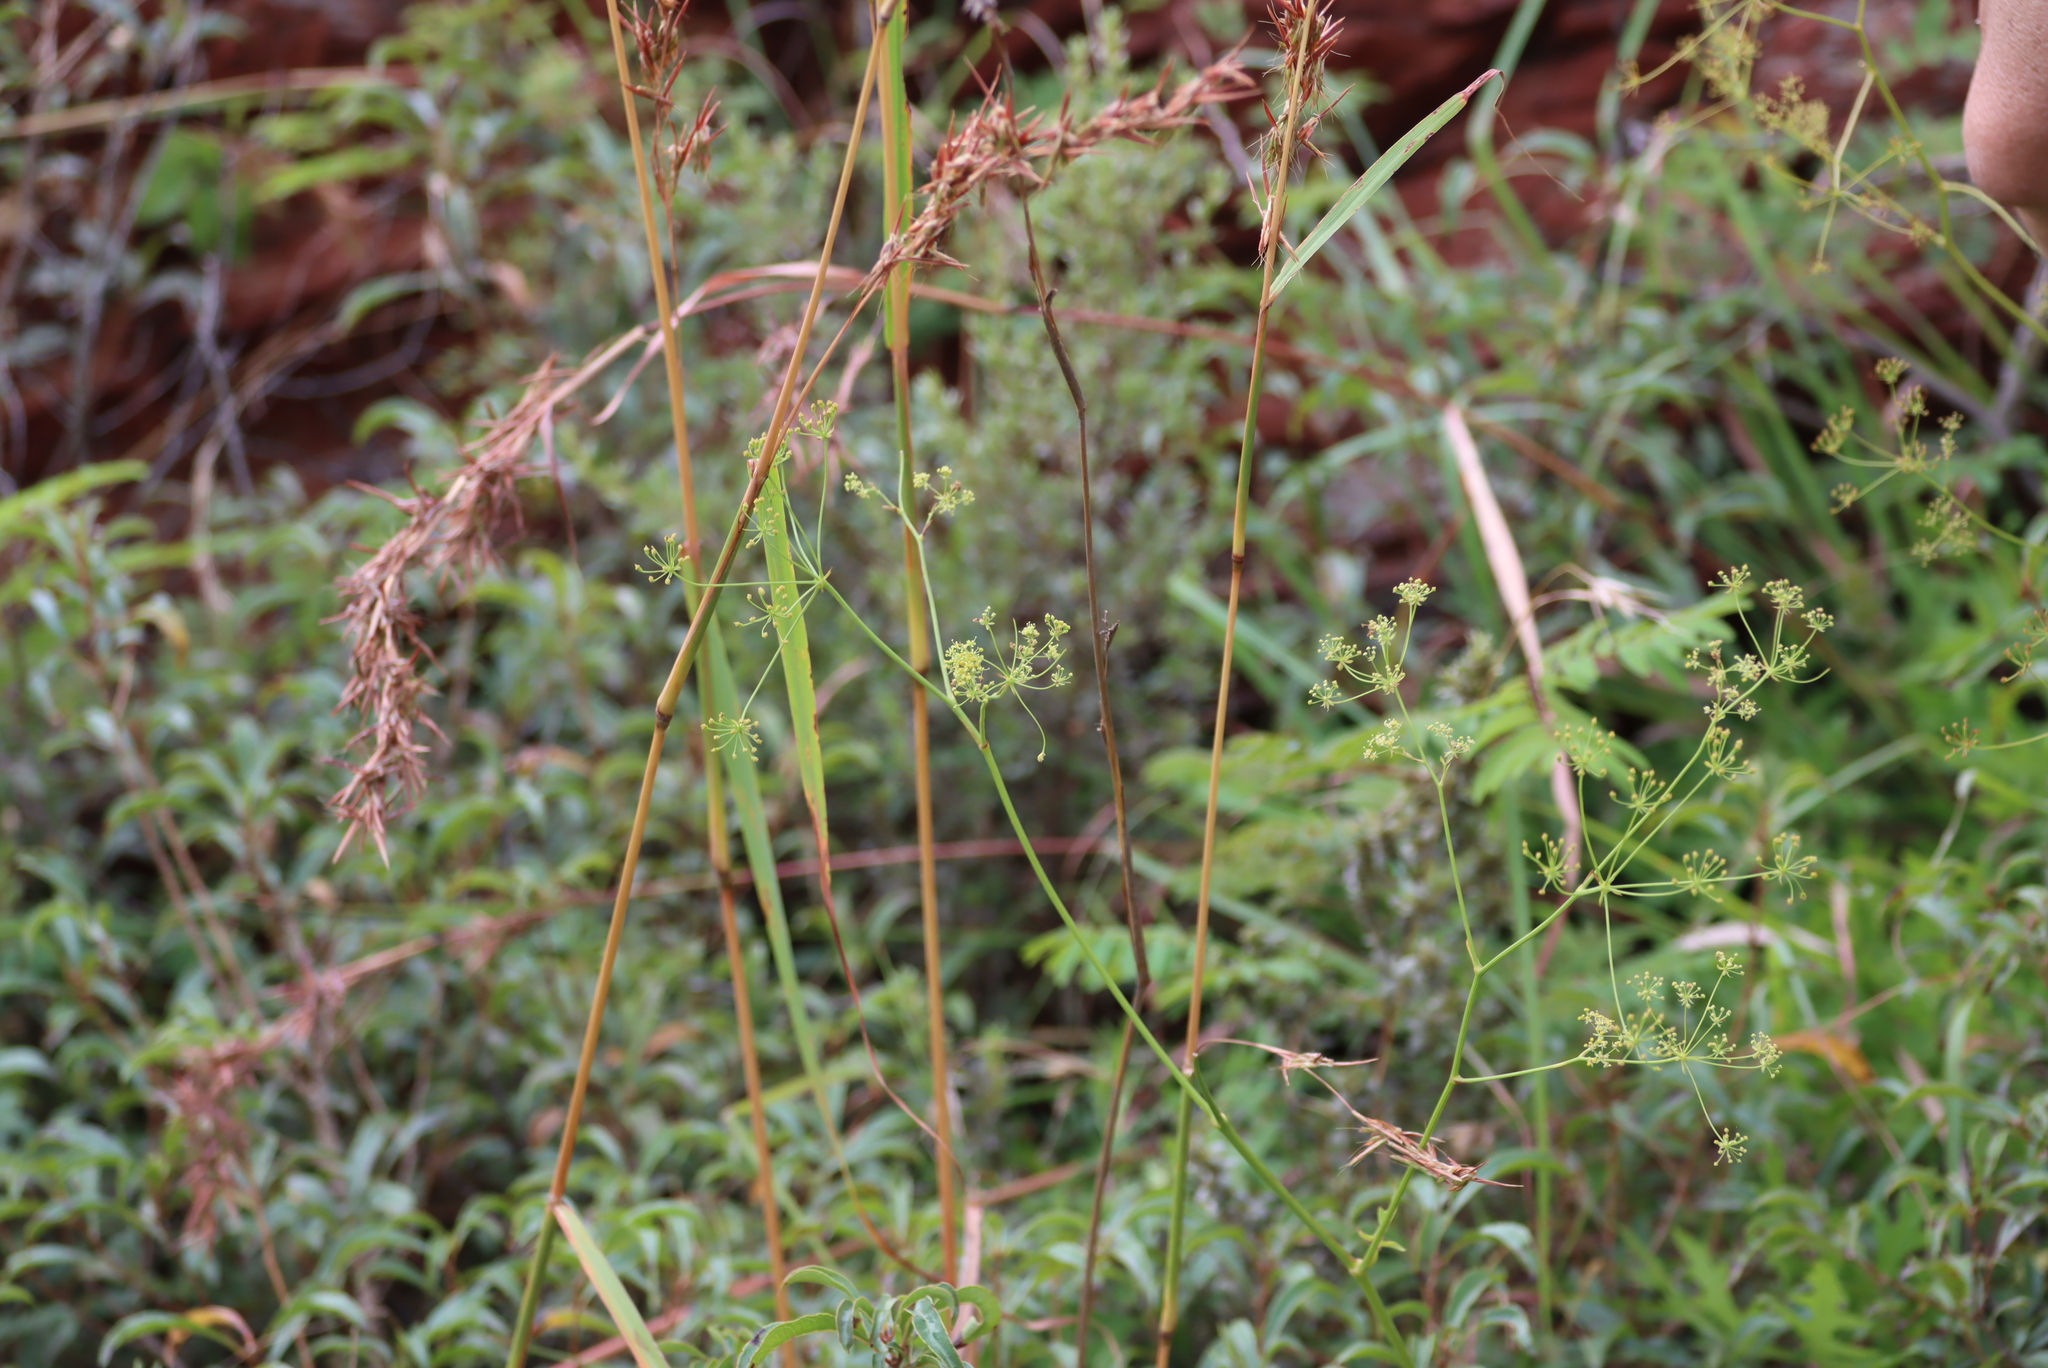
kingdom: Plantae
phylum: Tracheophyta
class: Magnoliopsida
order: Apiales
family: Apiaceae
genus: Dracosciadium
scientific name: Dracosciadium italae
